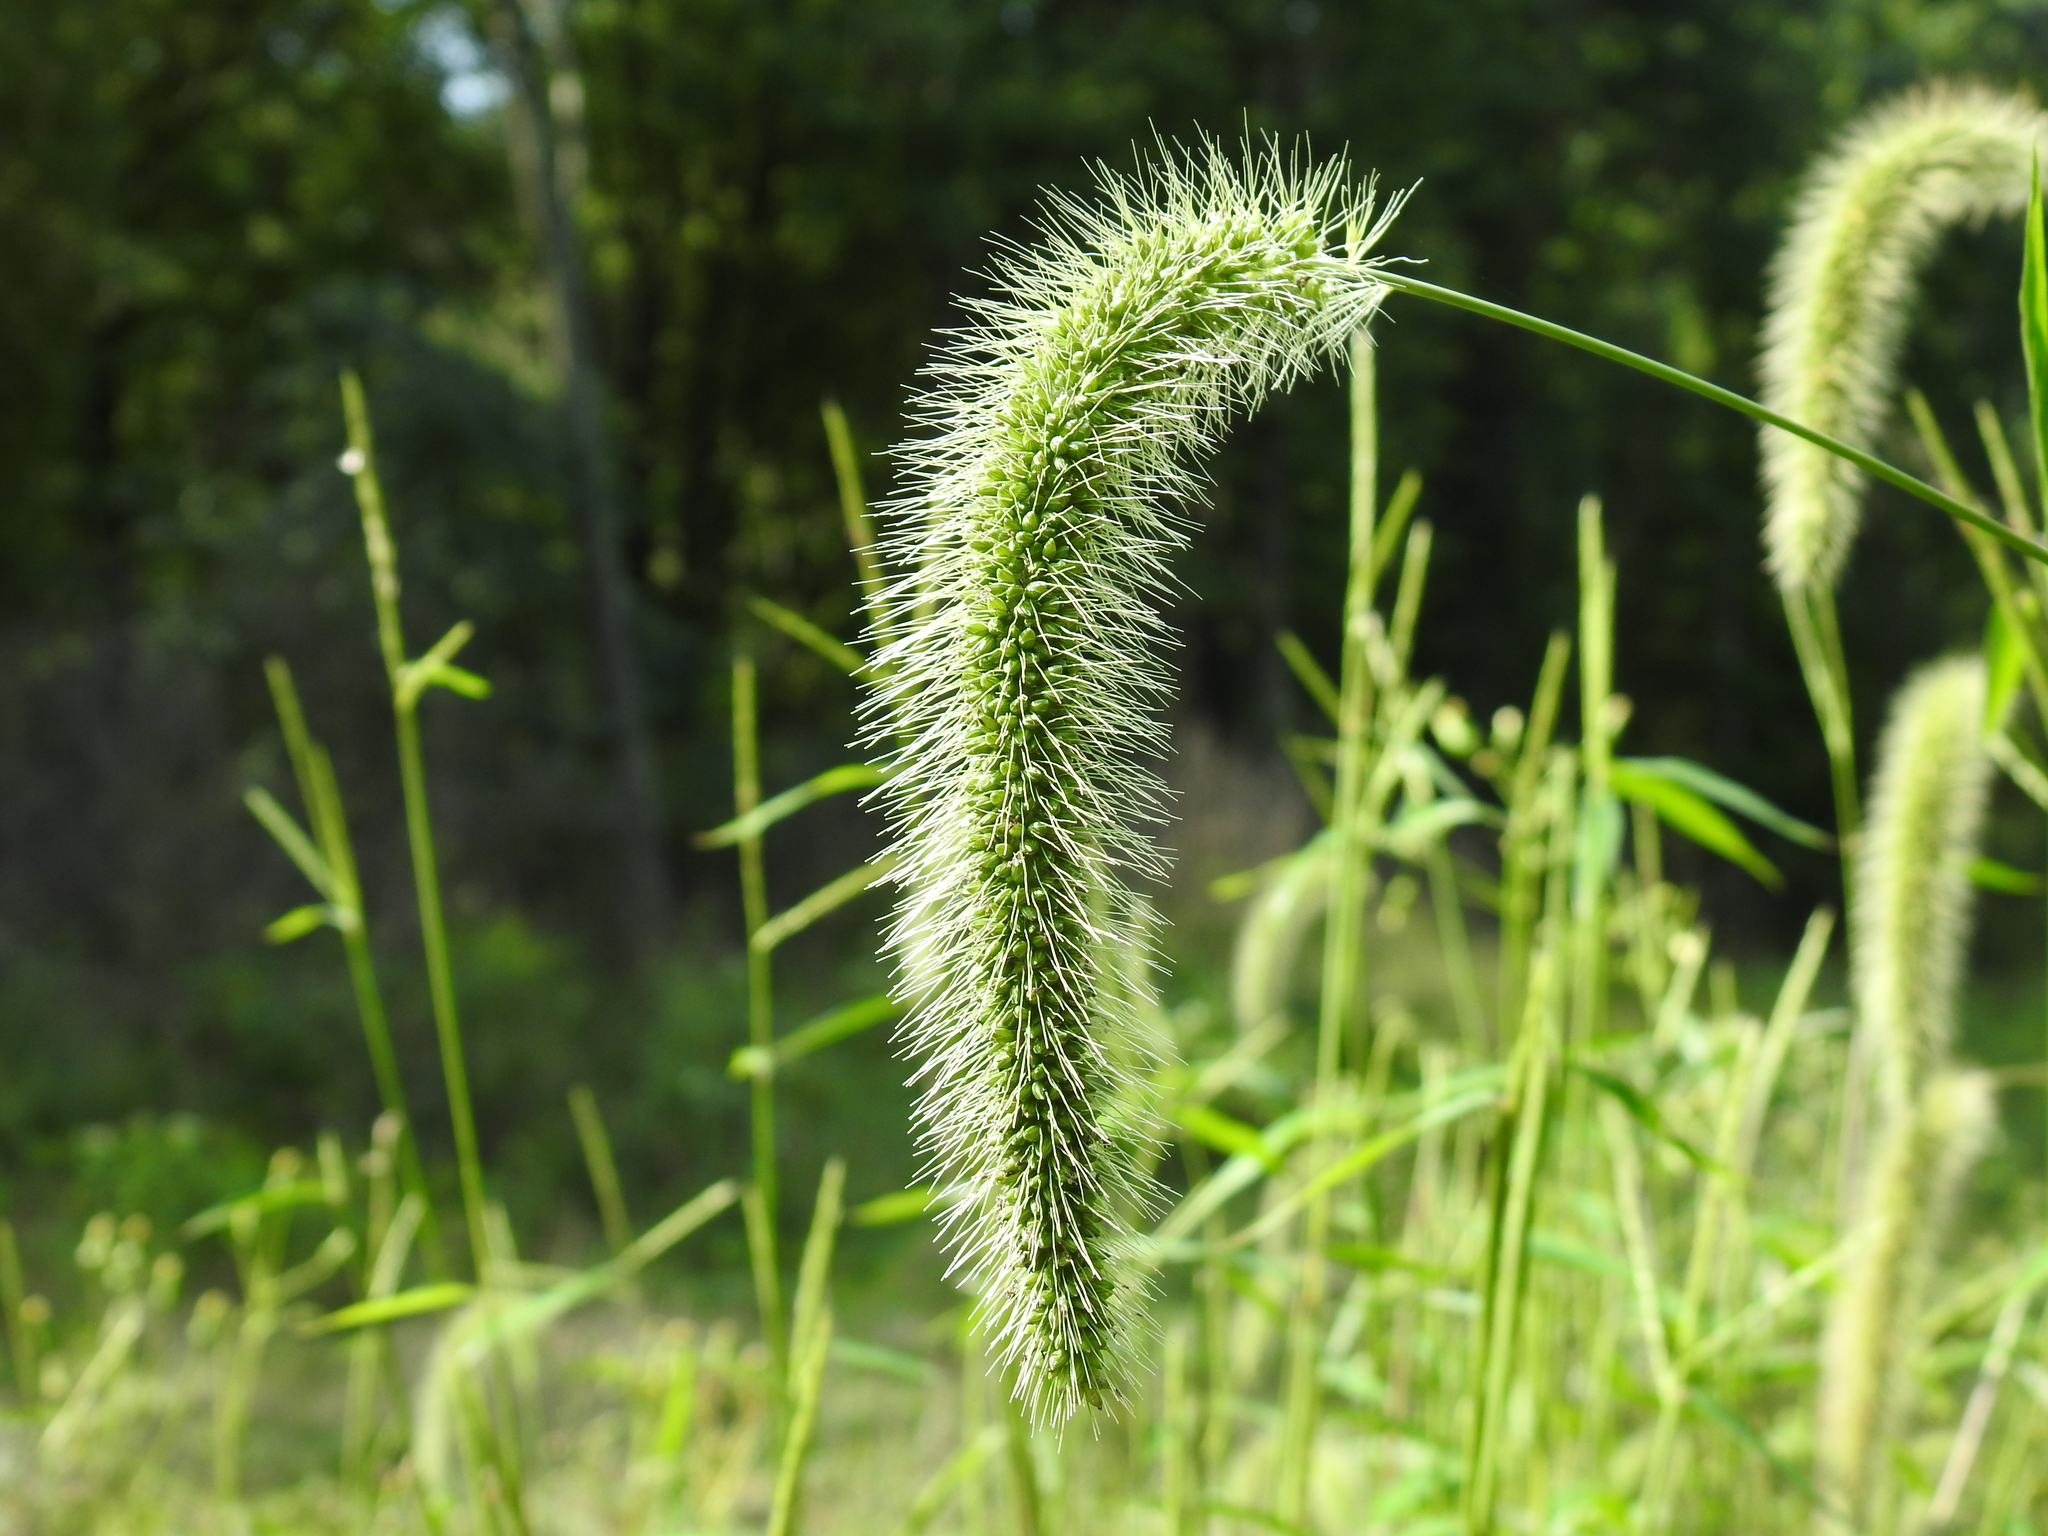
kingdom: Plantae
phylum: Tracheophyta
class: Liliopsida
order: Poales
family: Poaceae
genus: Setaria
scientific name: Setaria faberi
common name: Nodding bristle-grass
